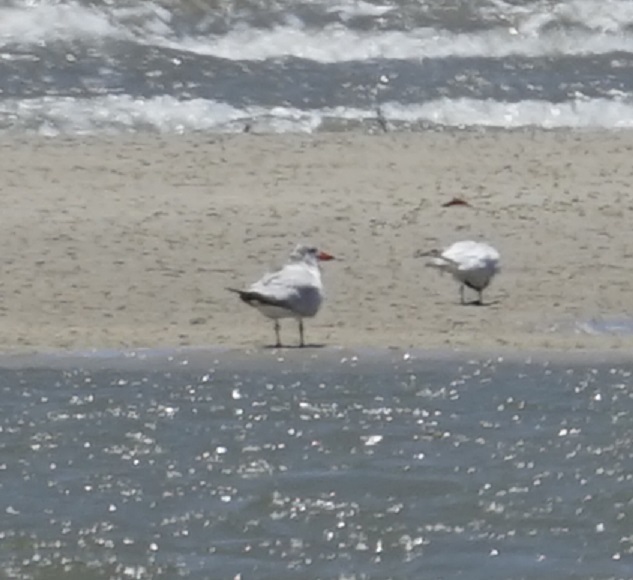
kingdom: Animalia
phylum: Chordata
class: Aves
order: Charadriiformes
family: Laridae
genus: Hydroprogne
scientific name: Hydroprogne caspia
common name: Caspian tern
